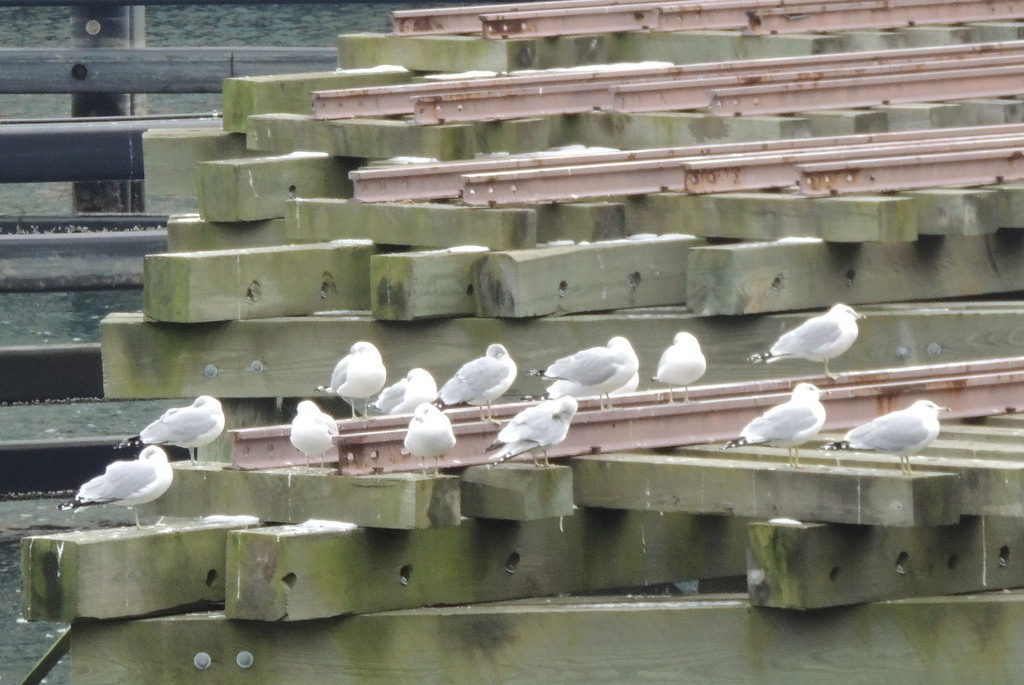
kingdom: Animalia
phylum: Chordata
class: Aves
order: Charadriiformes
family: Laridae
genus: Larus
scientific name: Larus delawarensis
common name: Ring-billed gull
